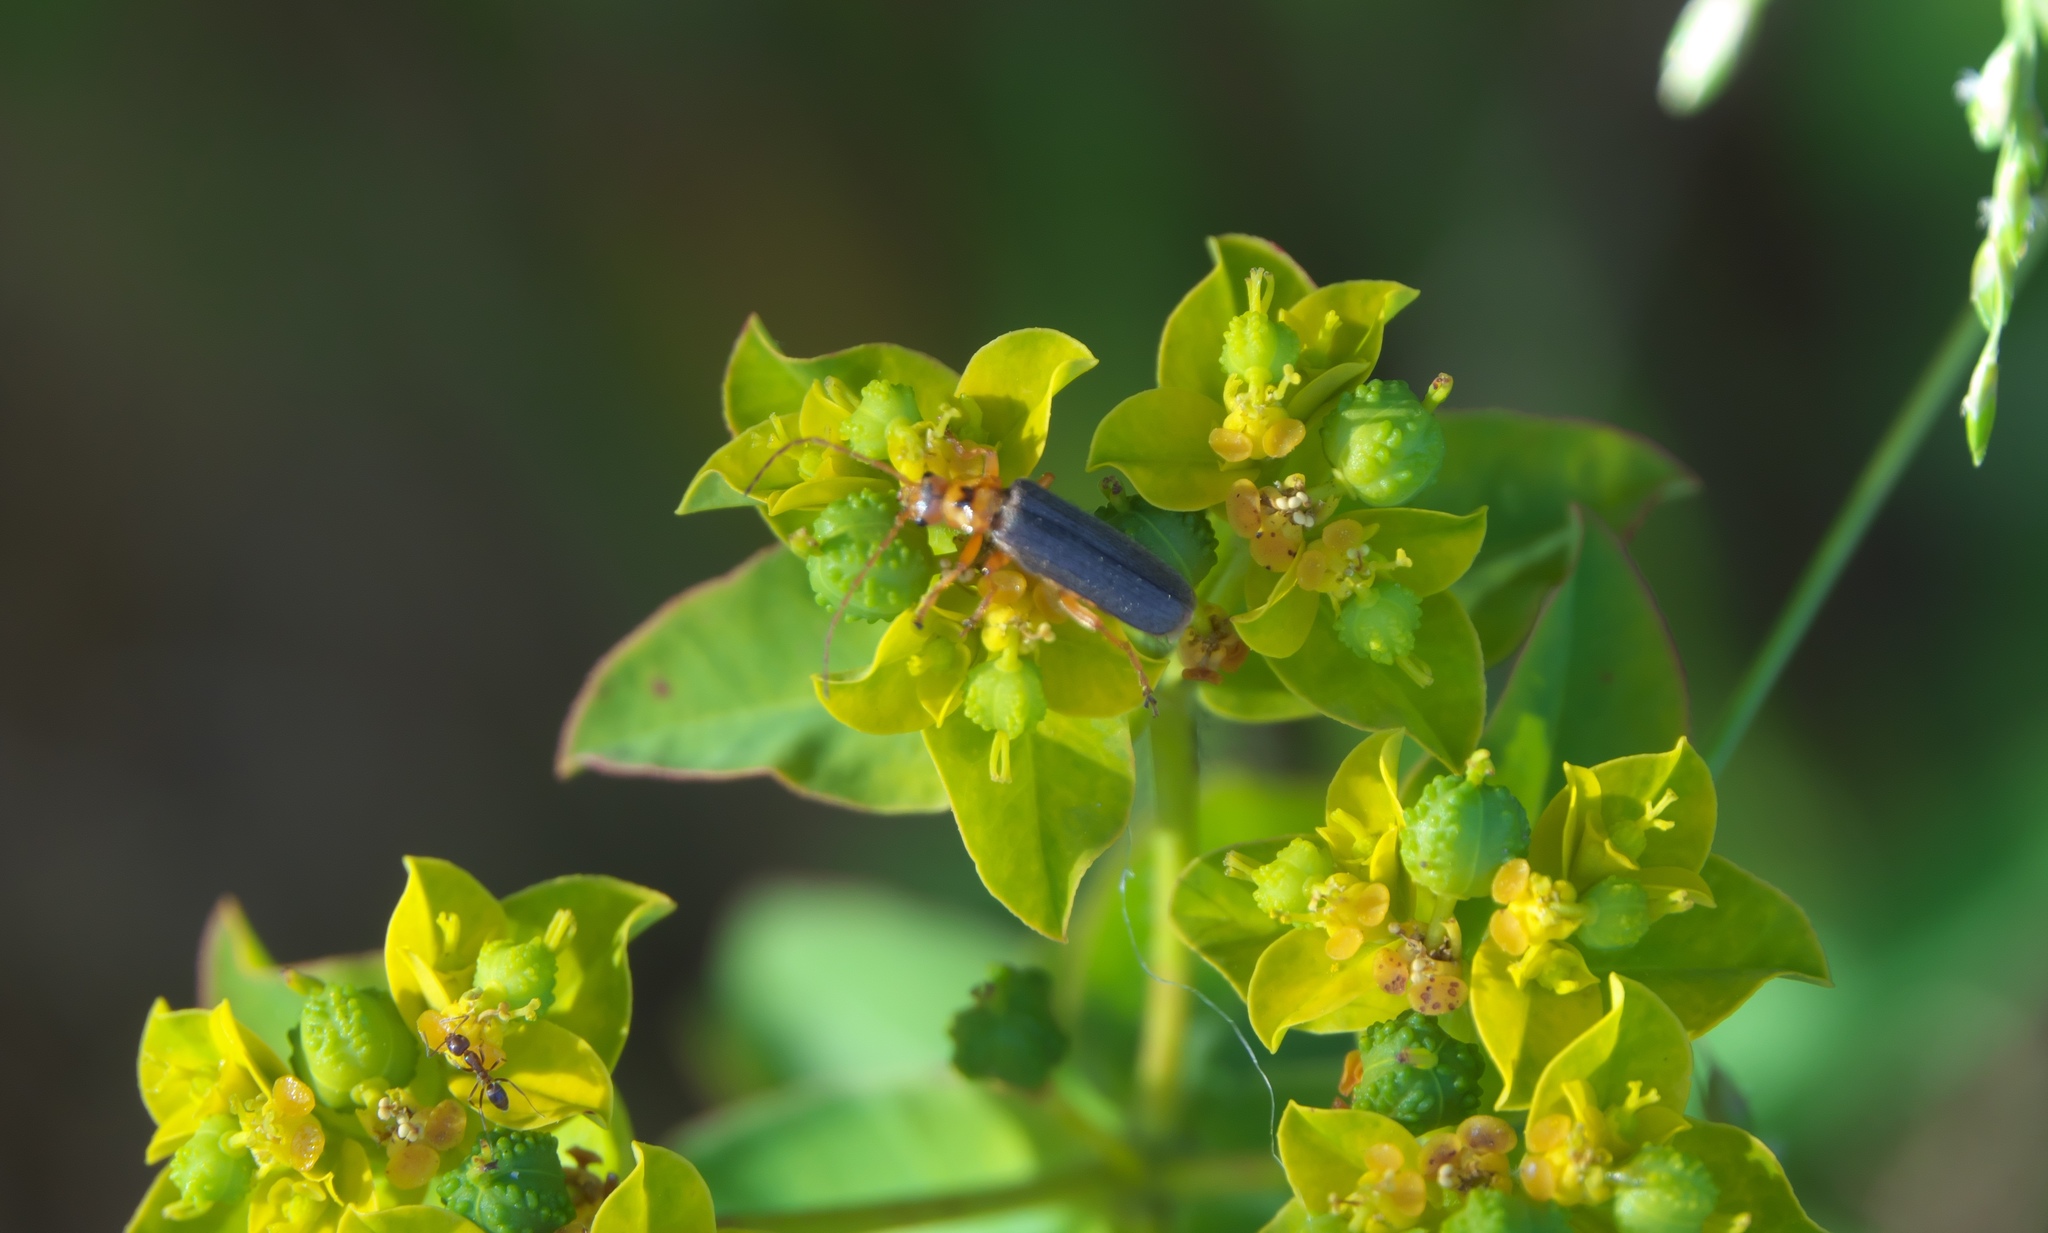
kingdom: Plantae
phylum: Tracheophyta
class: Magnoliopsida
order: Malpighiales
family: Euphorbiaceae
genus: Euphorbia
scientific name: Euphorbia oblongata
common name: Balkan spurge
